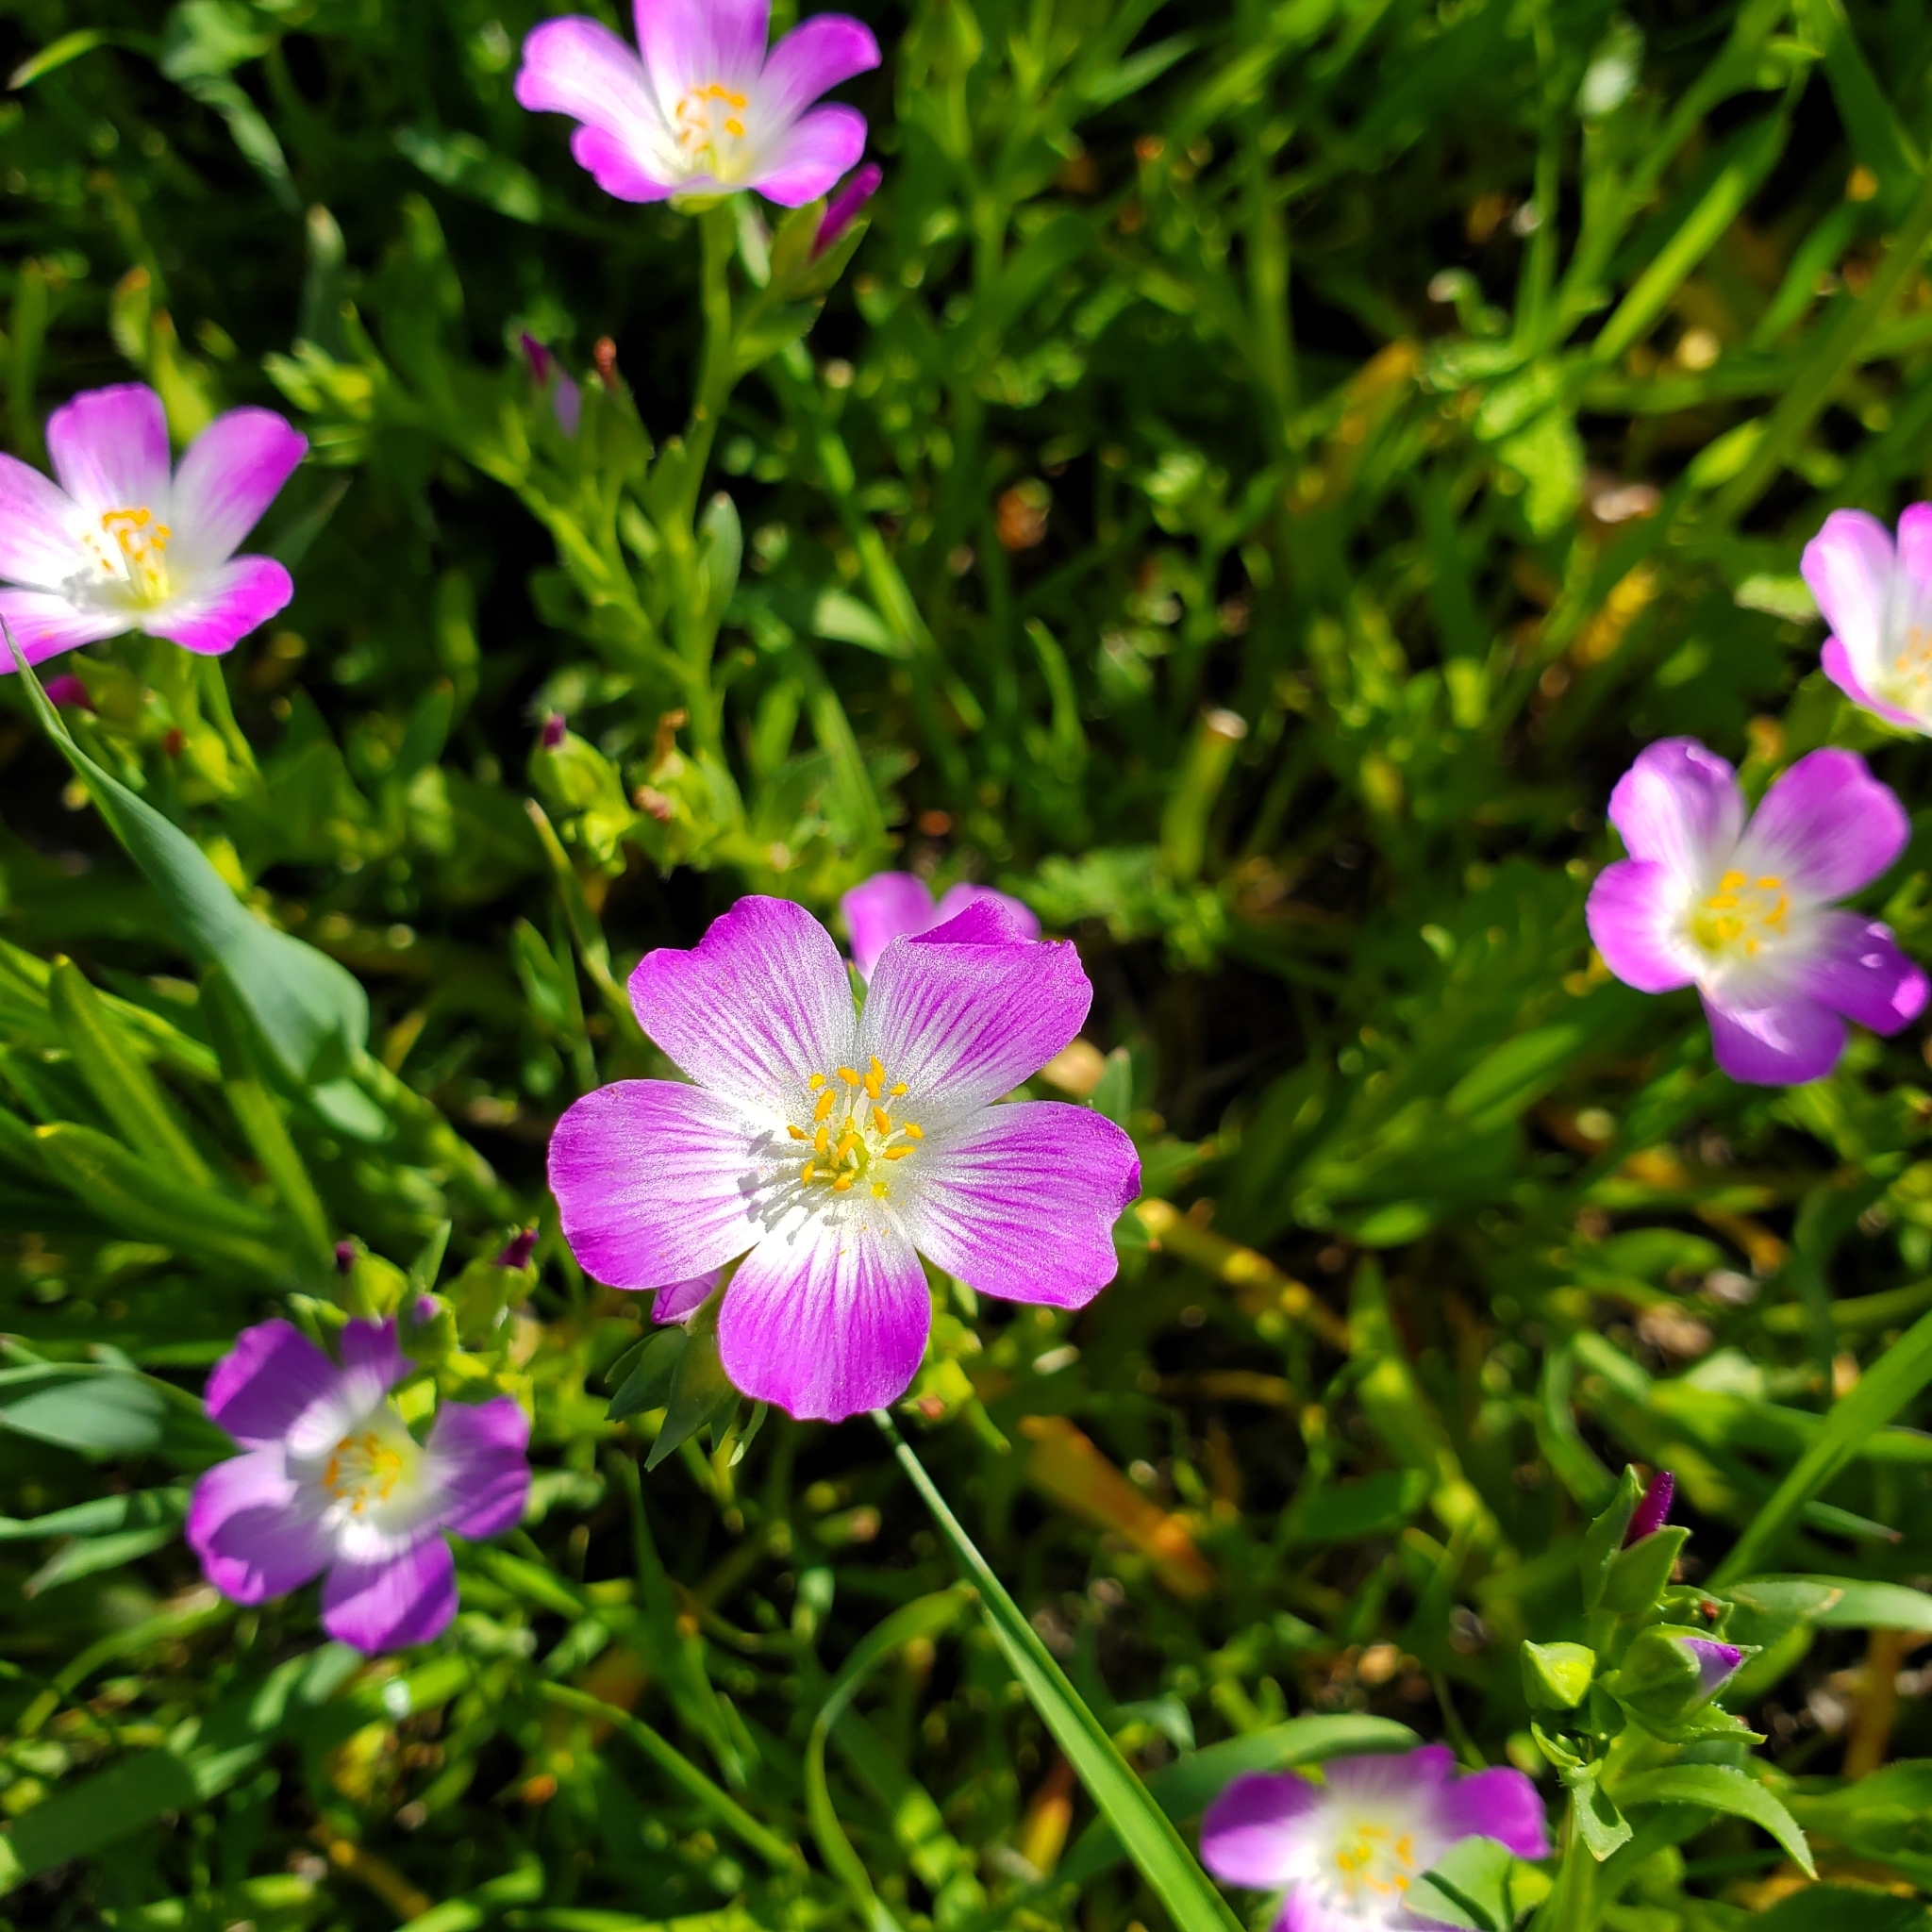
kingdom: Plantae
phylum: Tracheophyta
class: Magnoliopsida
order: Caryophyllales
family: Montiaceae
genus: Calandrinia
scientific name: Calandrinia menziesii
